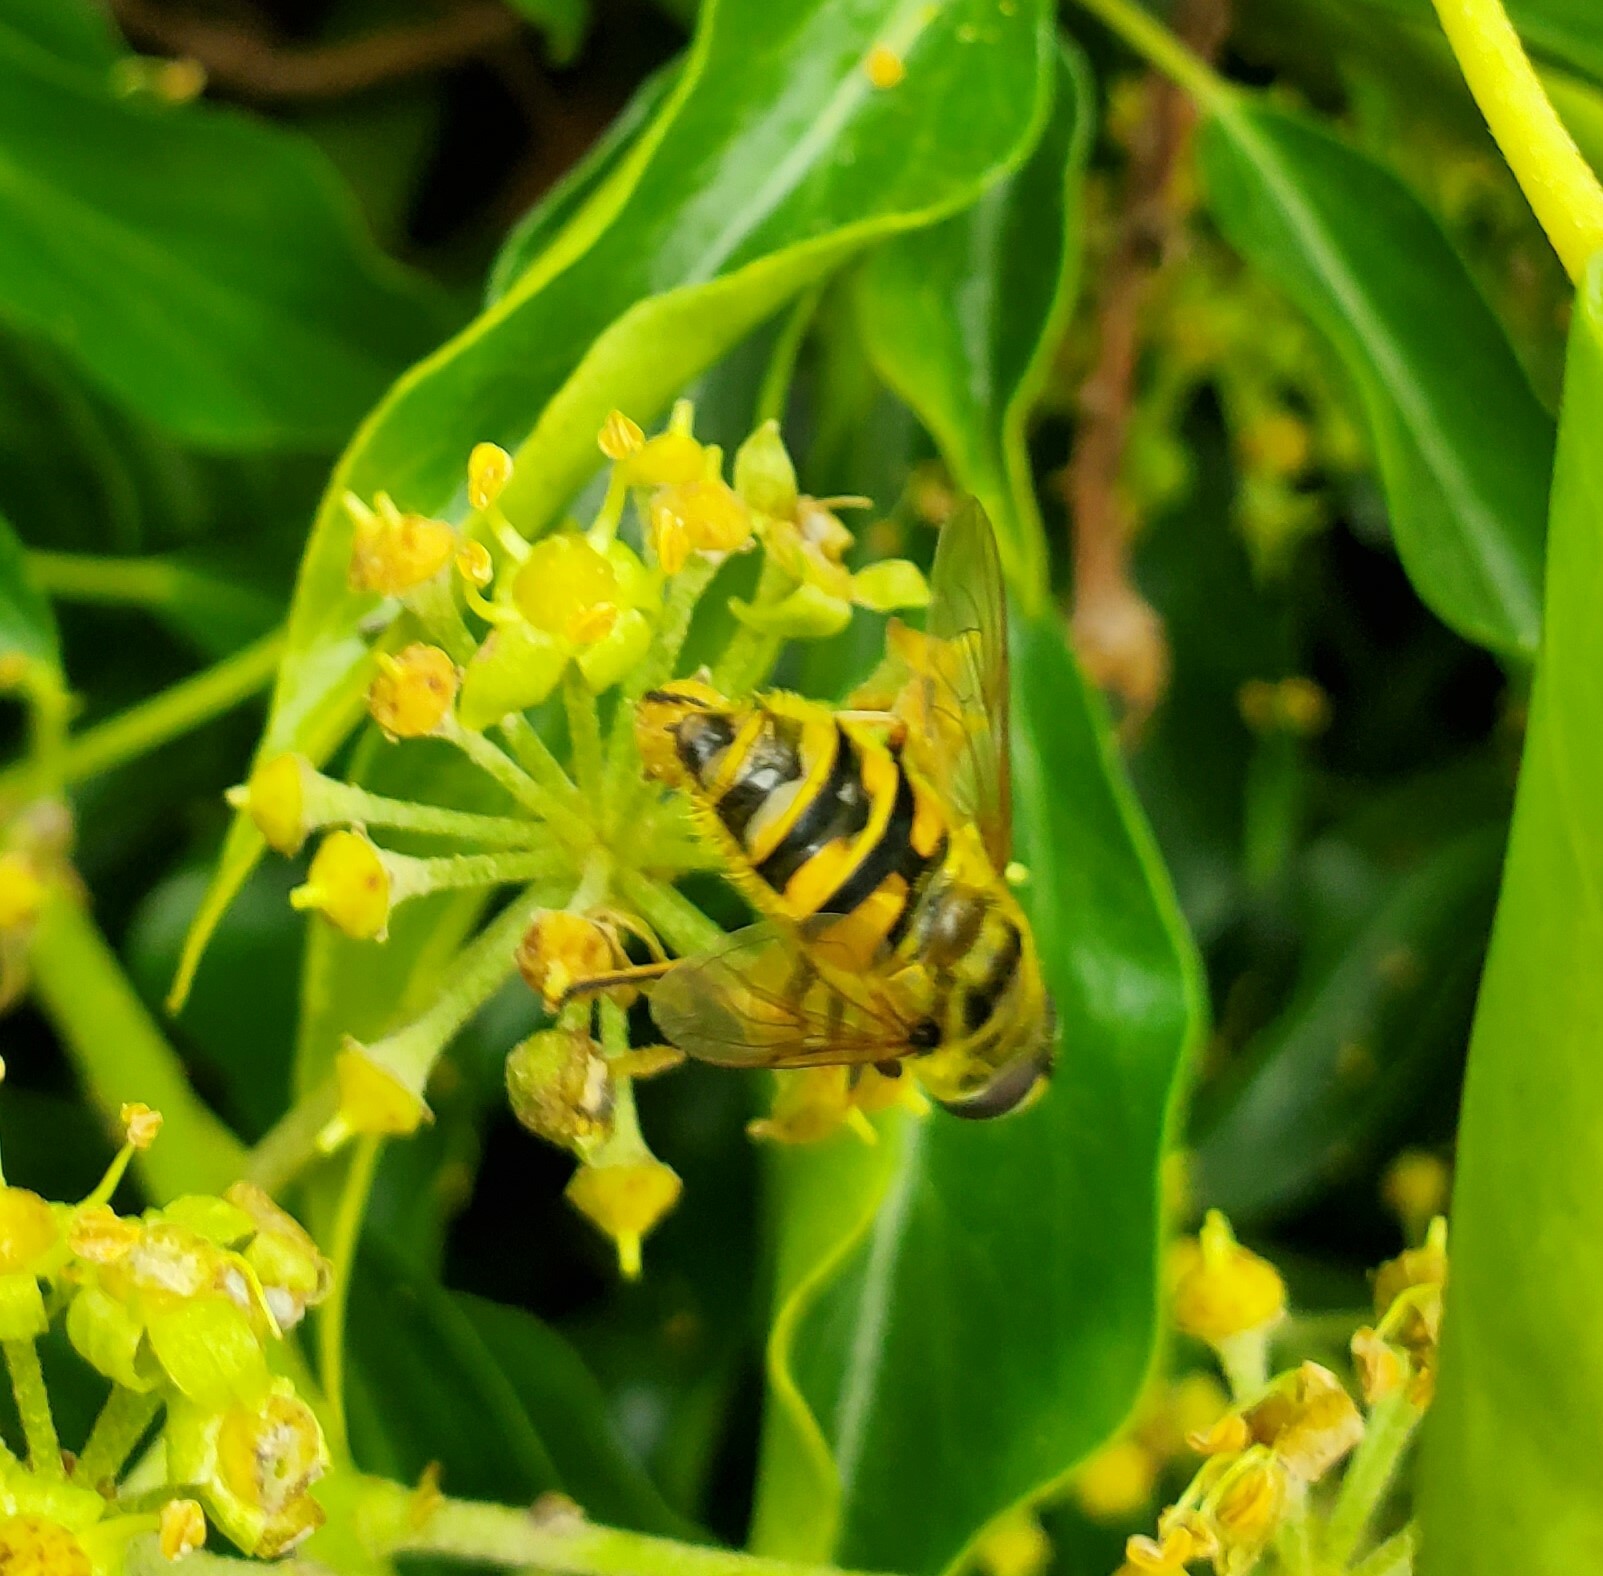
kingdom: Animalia
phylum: Arthropoda
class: Insecta
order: Diptera
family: Syrphidae
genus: Myathropa
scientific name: Myathropa florea
